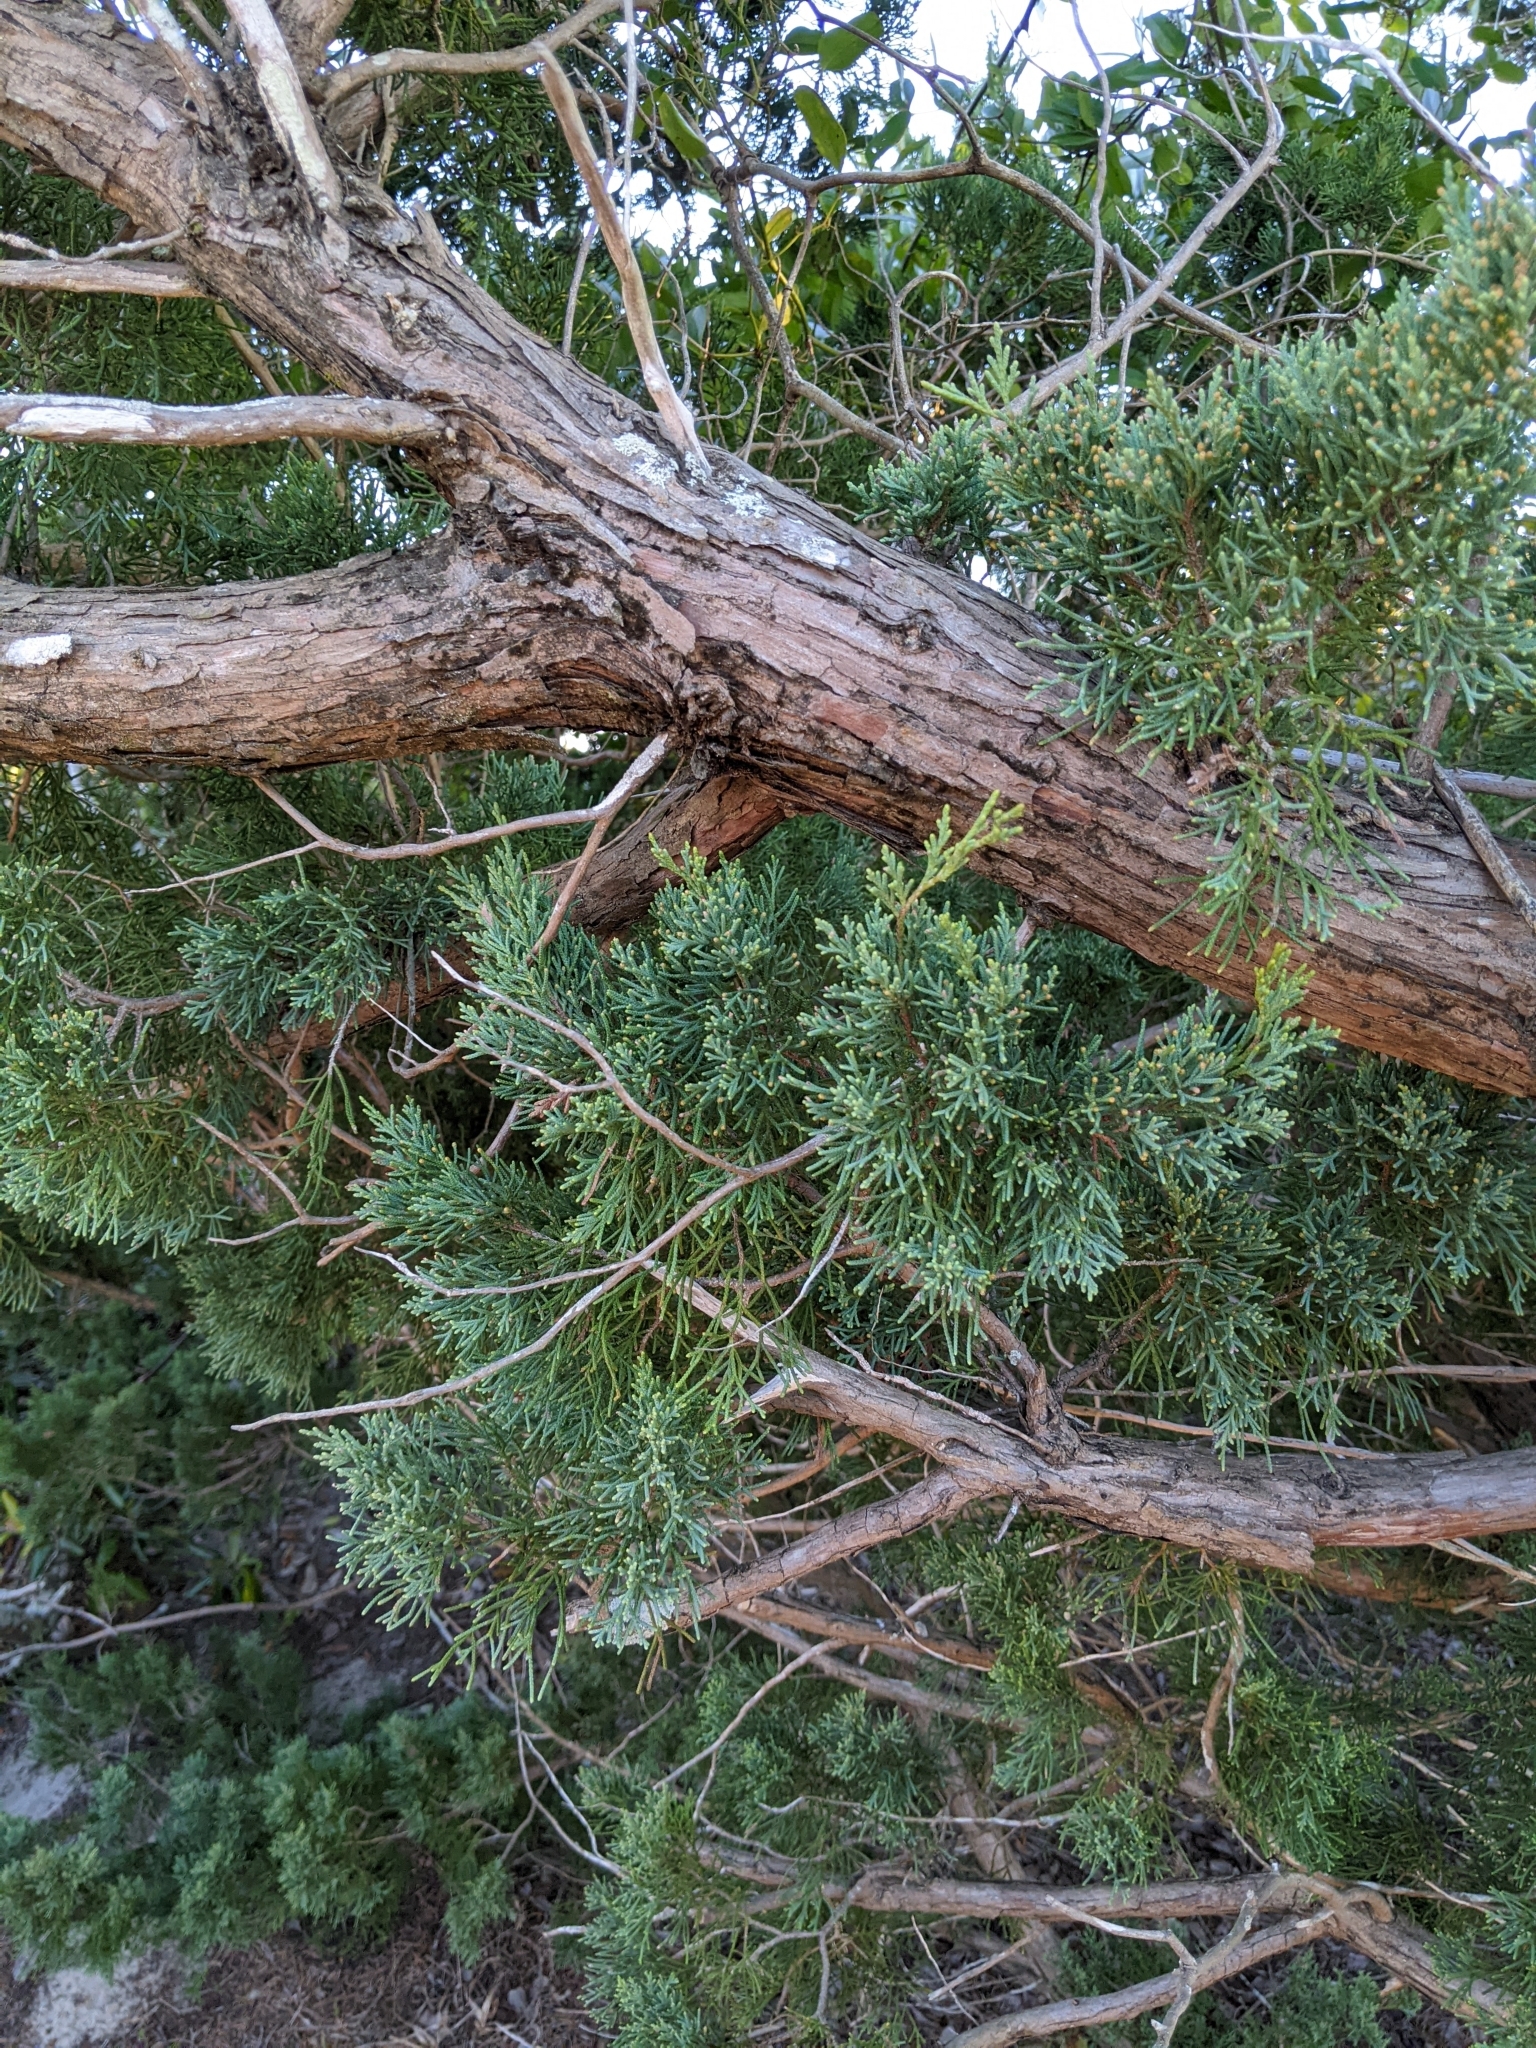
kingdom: Plantae
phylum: Tracheophyta
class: Pinopsida
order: Pinales
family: Cupressaceae
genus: Juniperus
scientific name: Juniperus virginiana
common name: Red juniper
